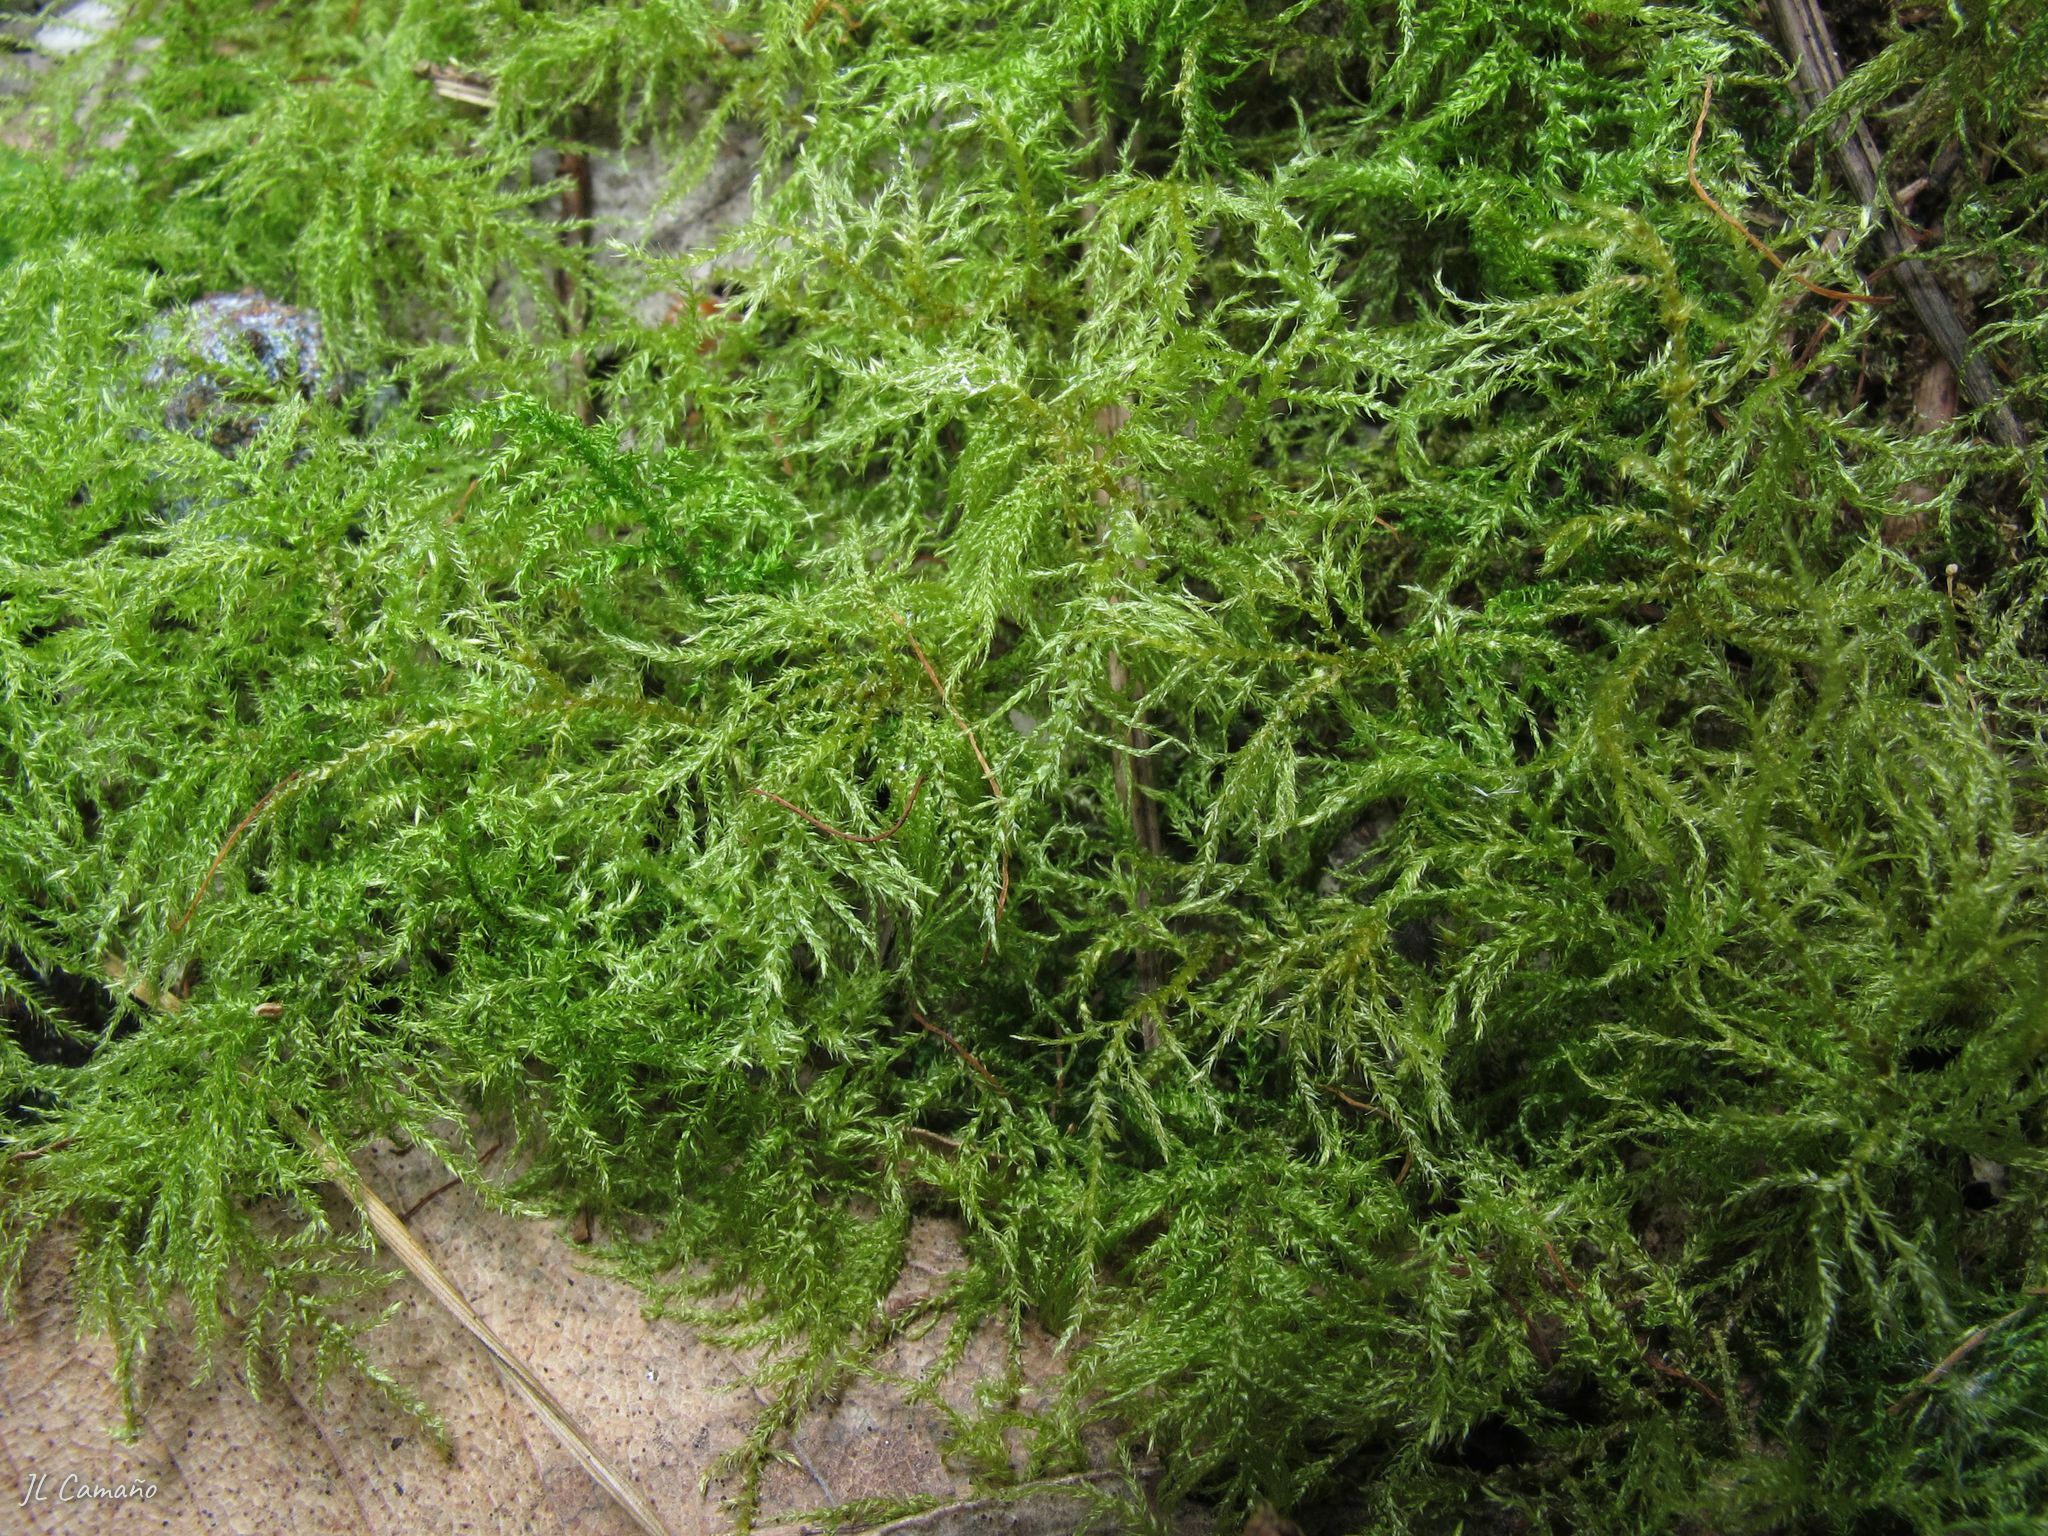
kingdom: Plantae
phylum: Bryophyta
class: Bryopsida
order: Hypnales
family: Brachytheciaceae
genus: Kindbergia
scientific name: Kindbergia praelonga
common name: Slender beaked moss
